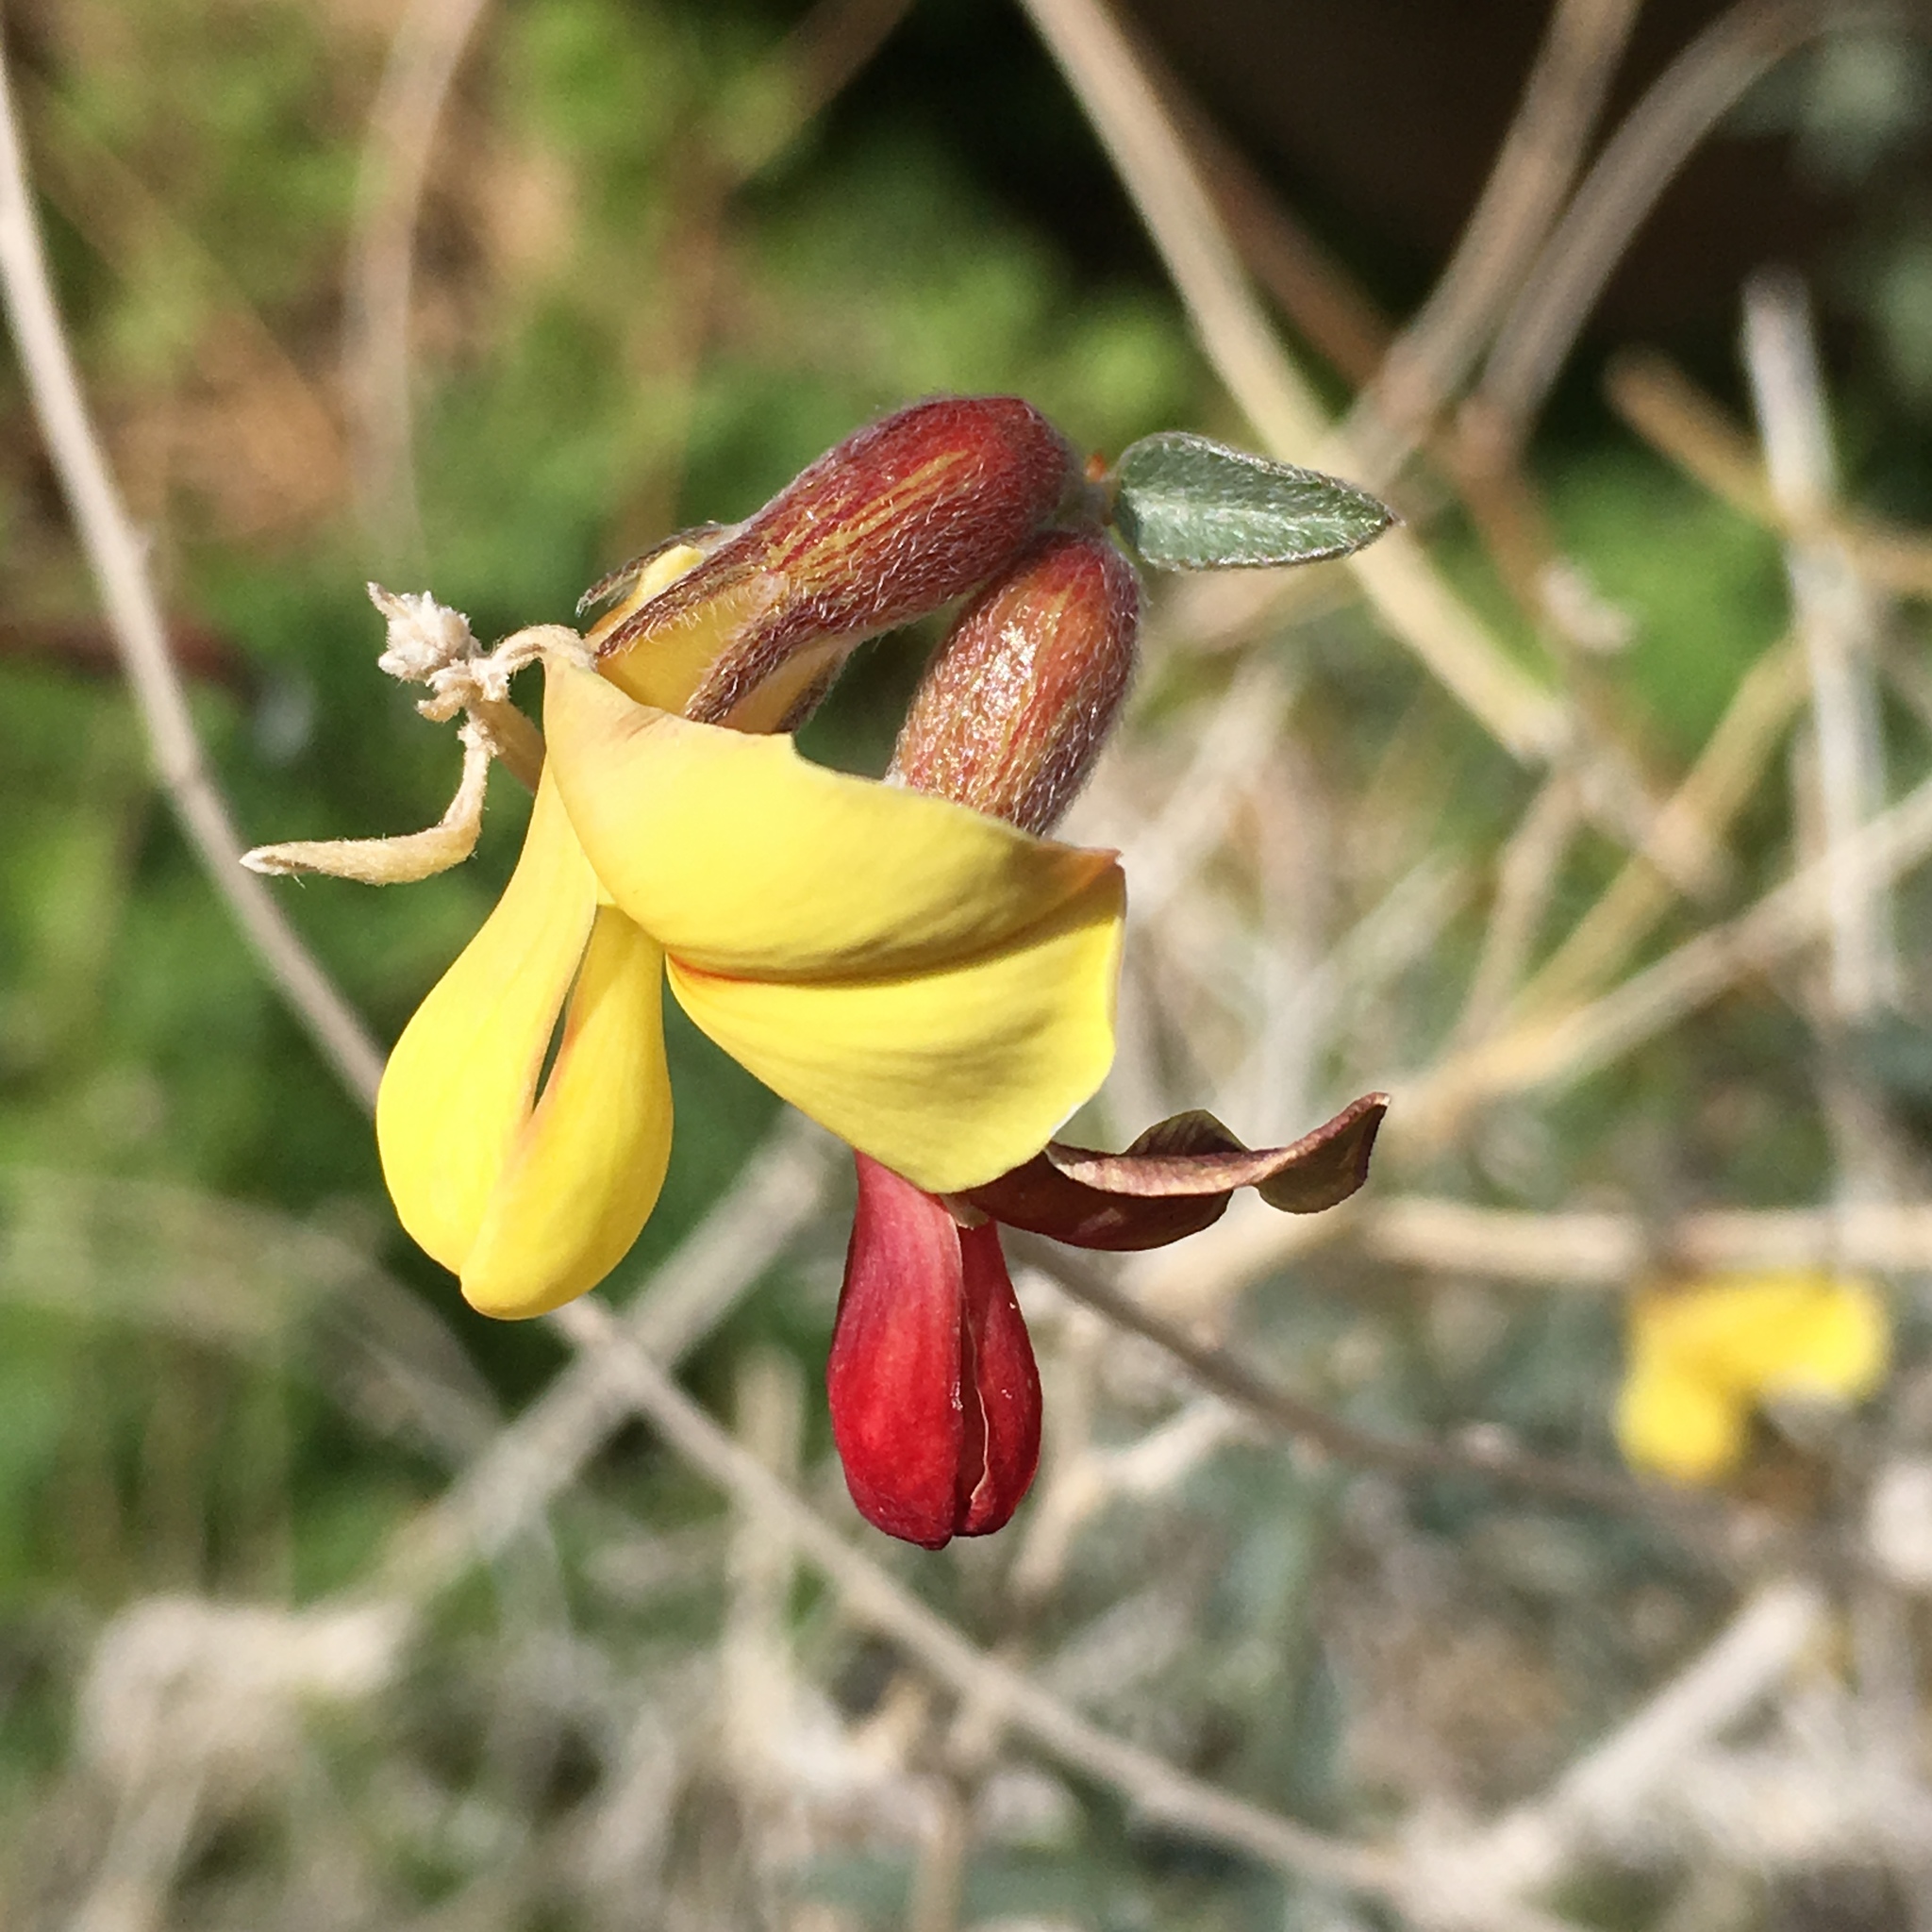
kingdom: Plantae
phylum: Tracheophyta
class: Magnoliopsida
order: Fabales
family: Fabaceae
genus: Acmispon
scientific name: Acmispon rigidus
